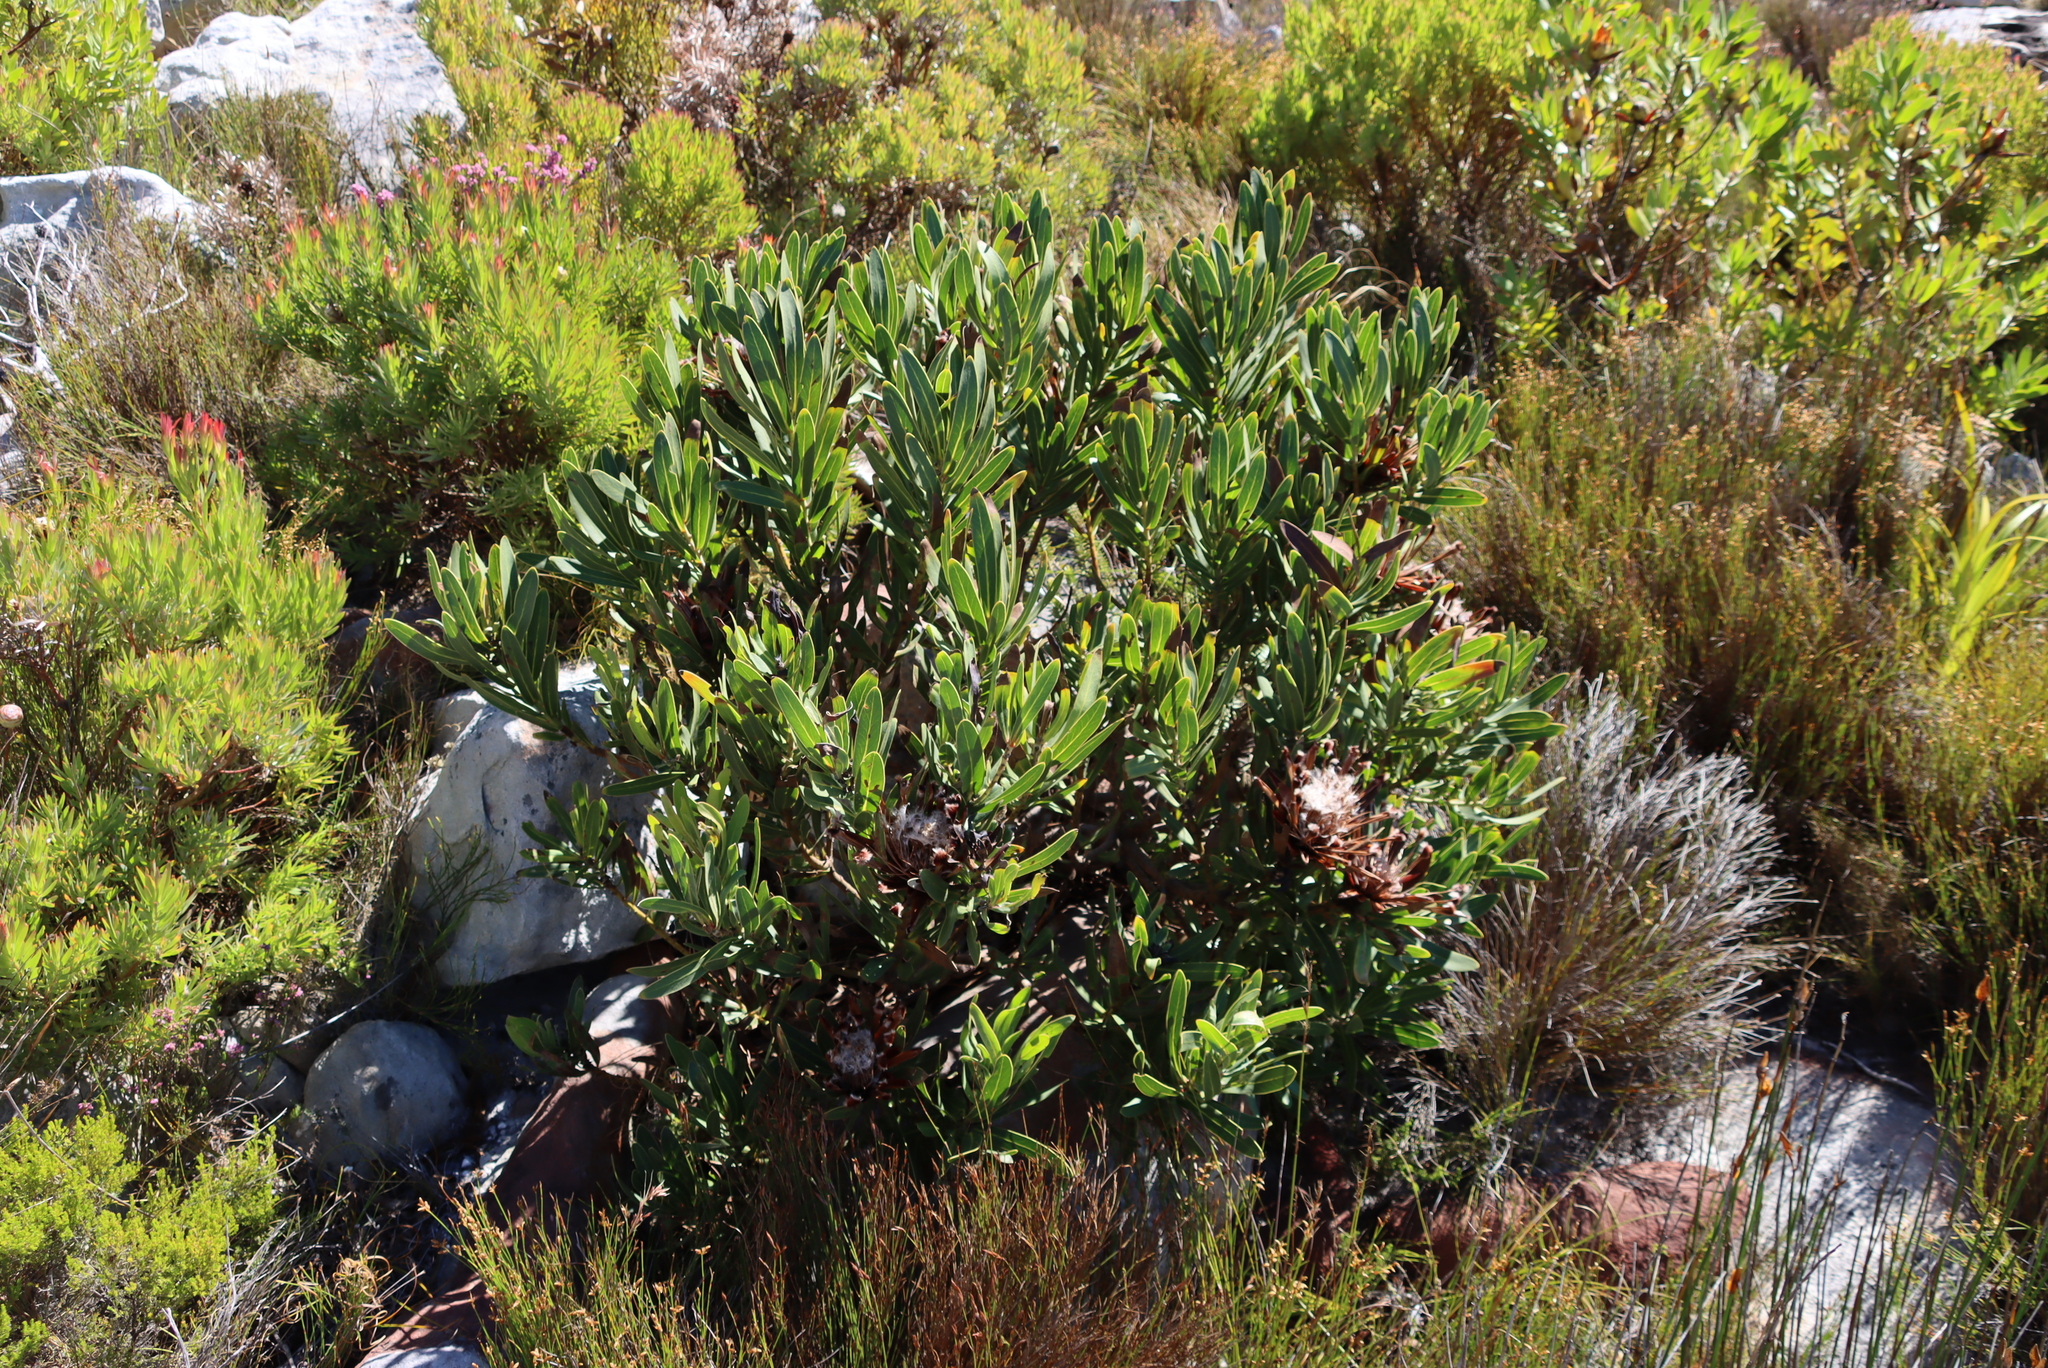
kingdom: Plantae
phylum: Tracheophyta
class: Magnoliopsida
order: Proteales
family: Proteaceae
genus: Protea
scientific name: Protea lepidocarpodendron
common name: Black-bearded protea
